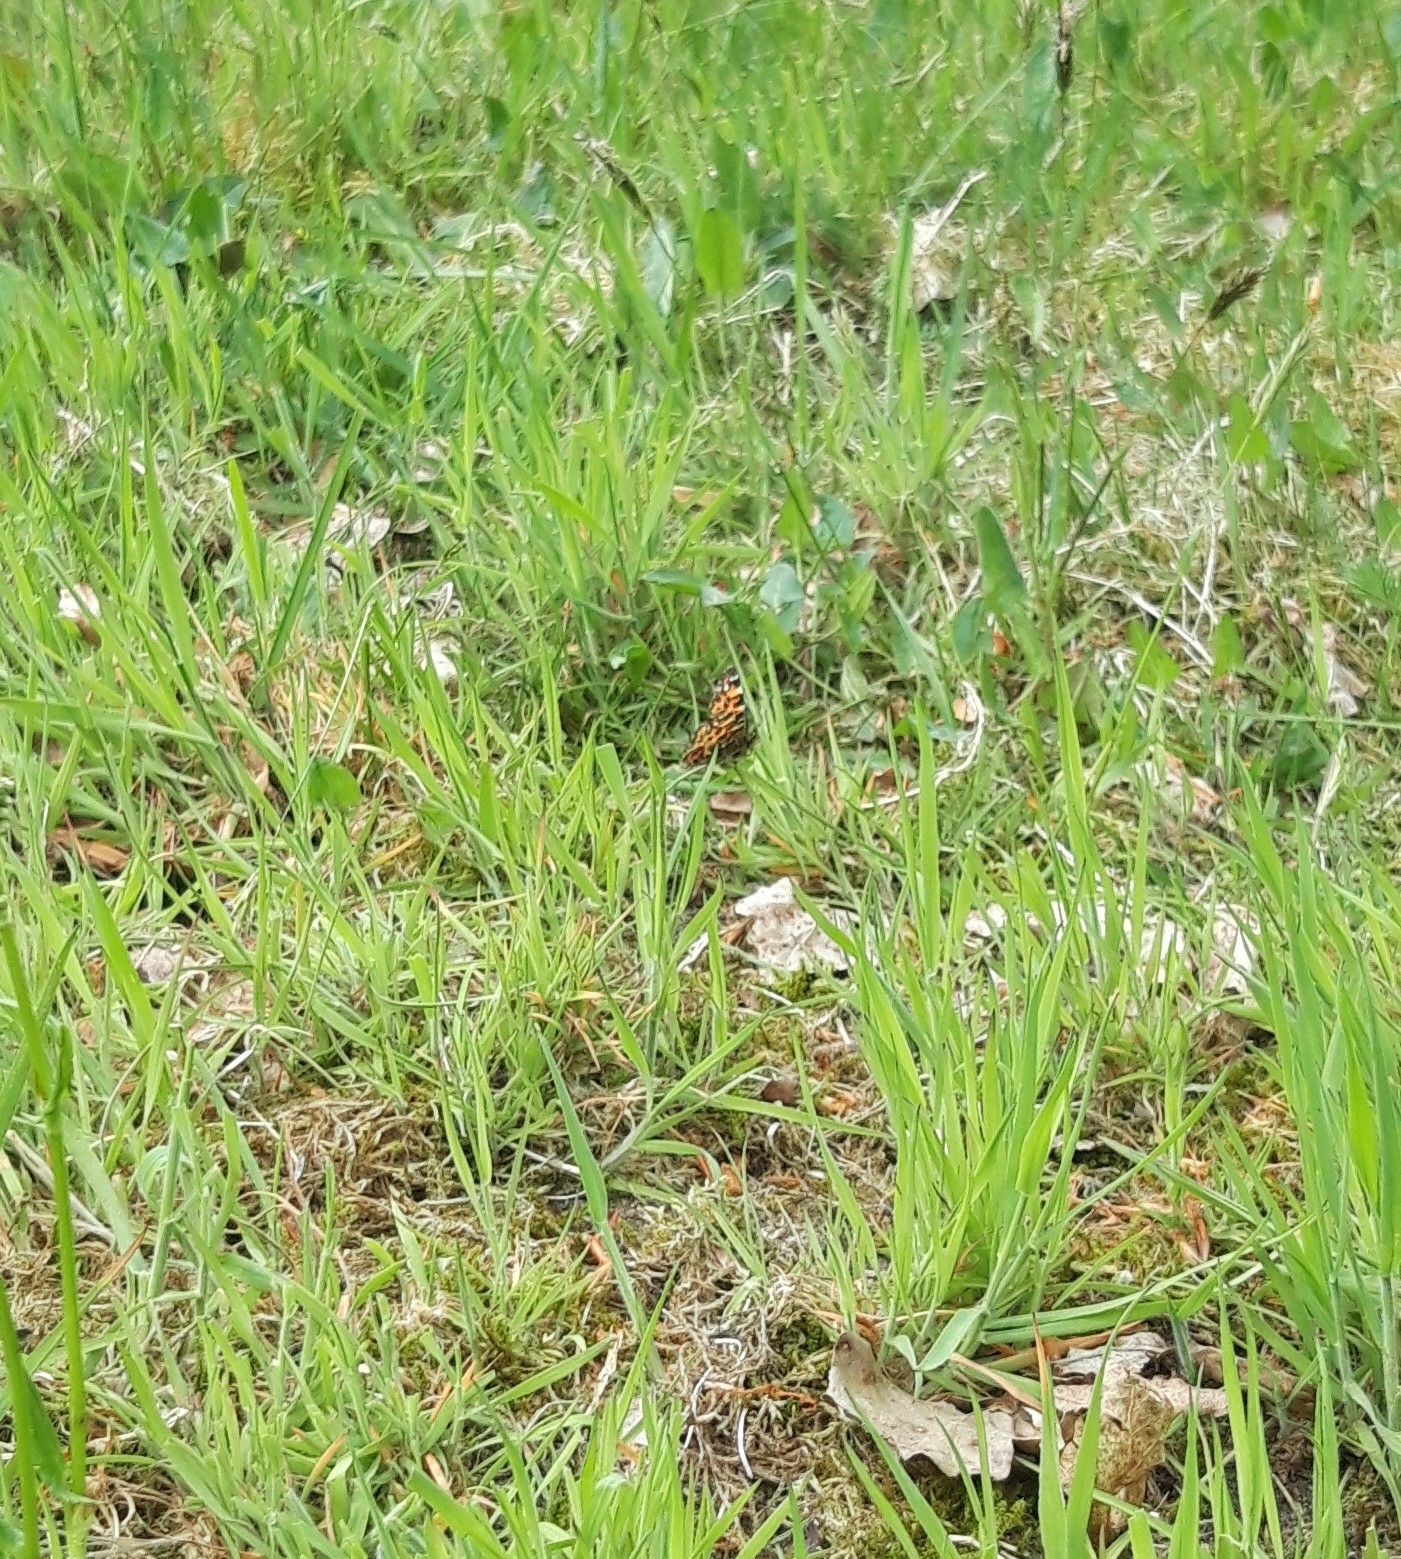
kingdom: Animalia
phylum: Arthropoda
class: Insecta
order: Lepidoptera
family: Nymphalidae
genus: Araschnia
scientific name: Araschnia levana
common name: Map butterfly
